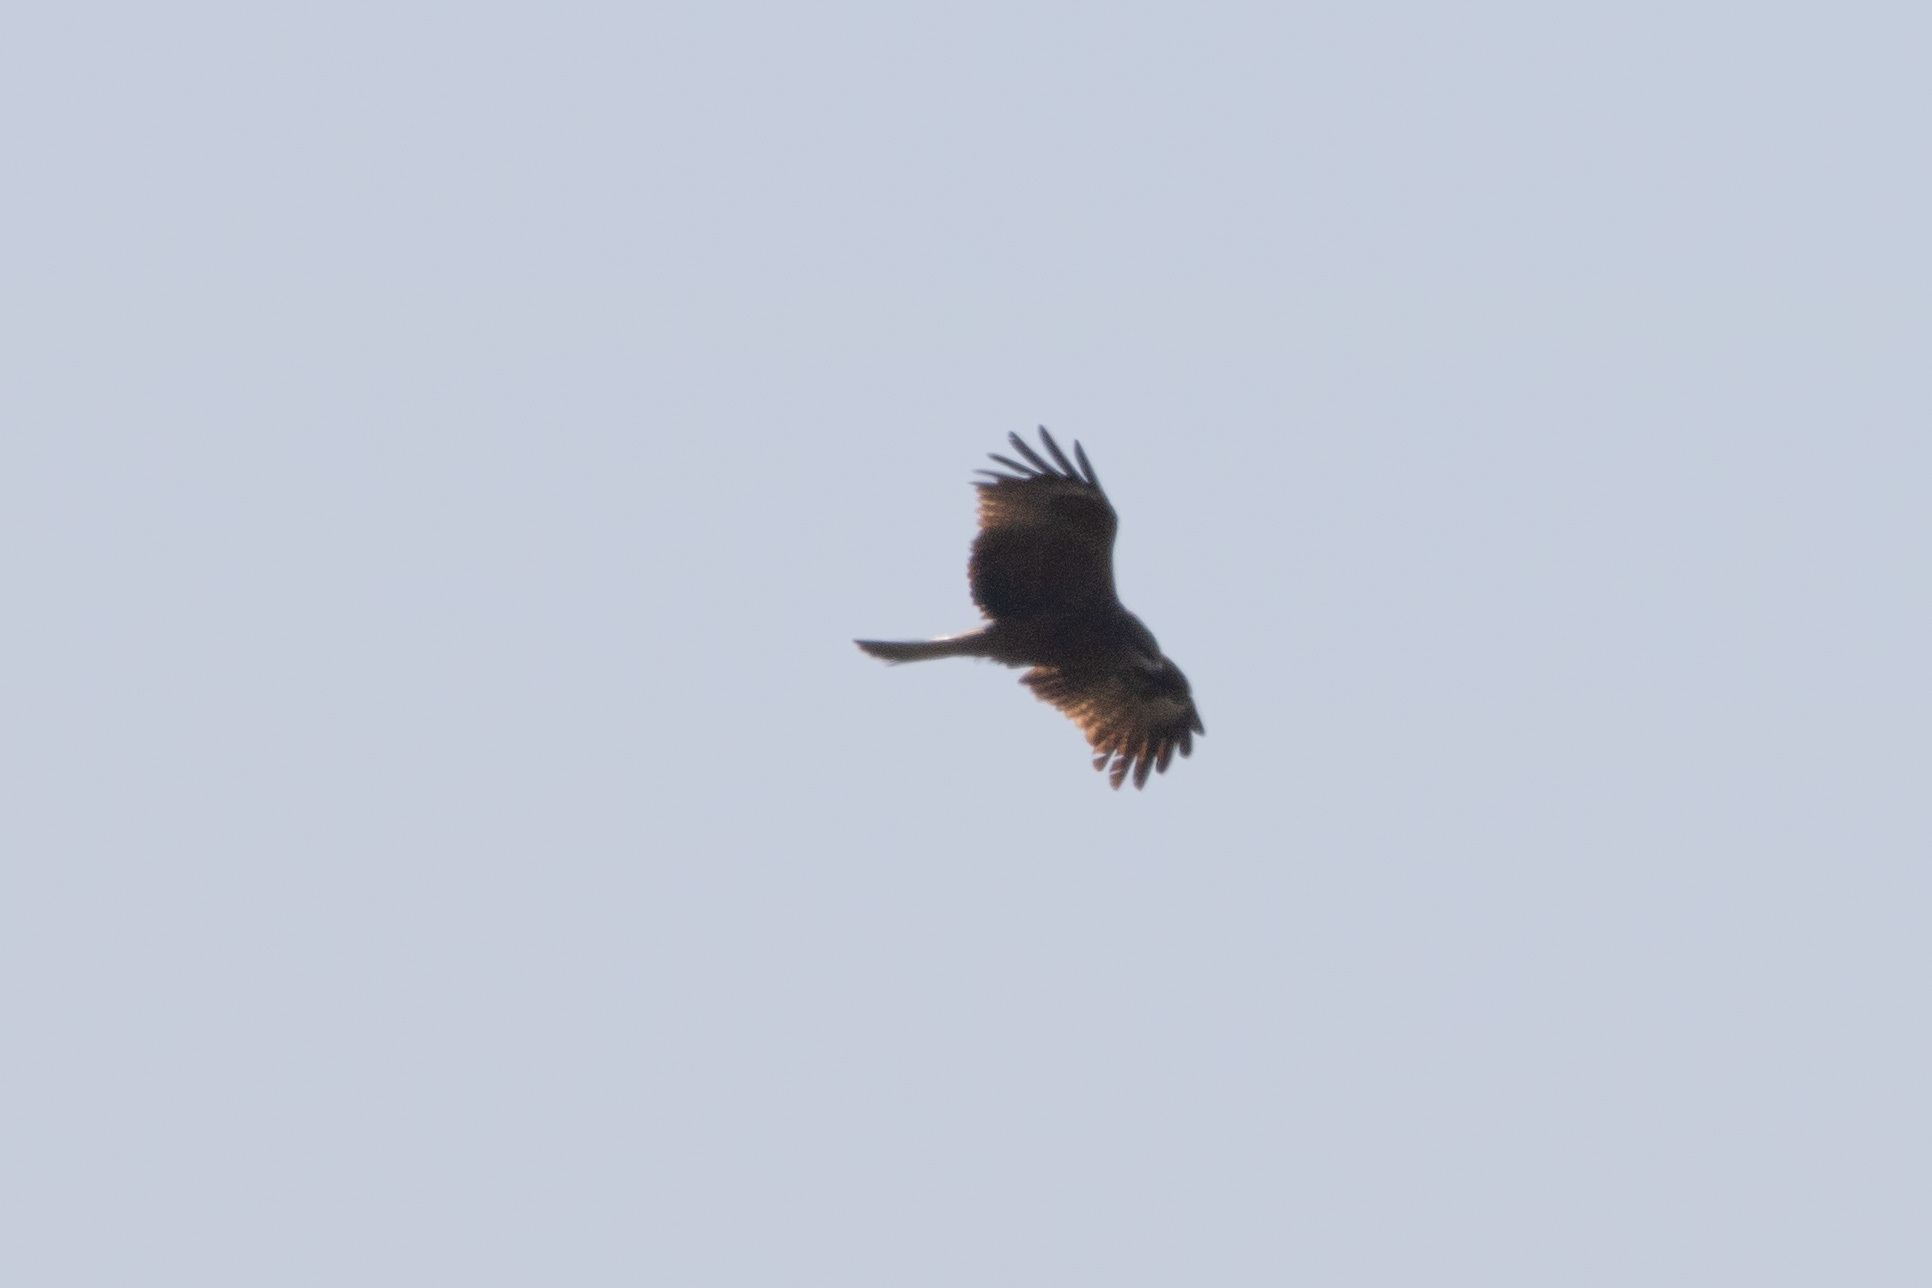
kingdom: Animalia
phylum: Chordata
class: Aves
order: Accipitriformes
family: Accipitridae
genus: Milvus
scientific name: Milvus migrans
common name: Black kite
